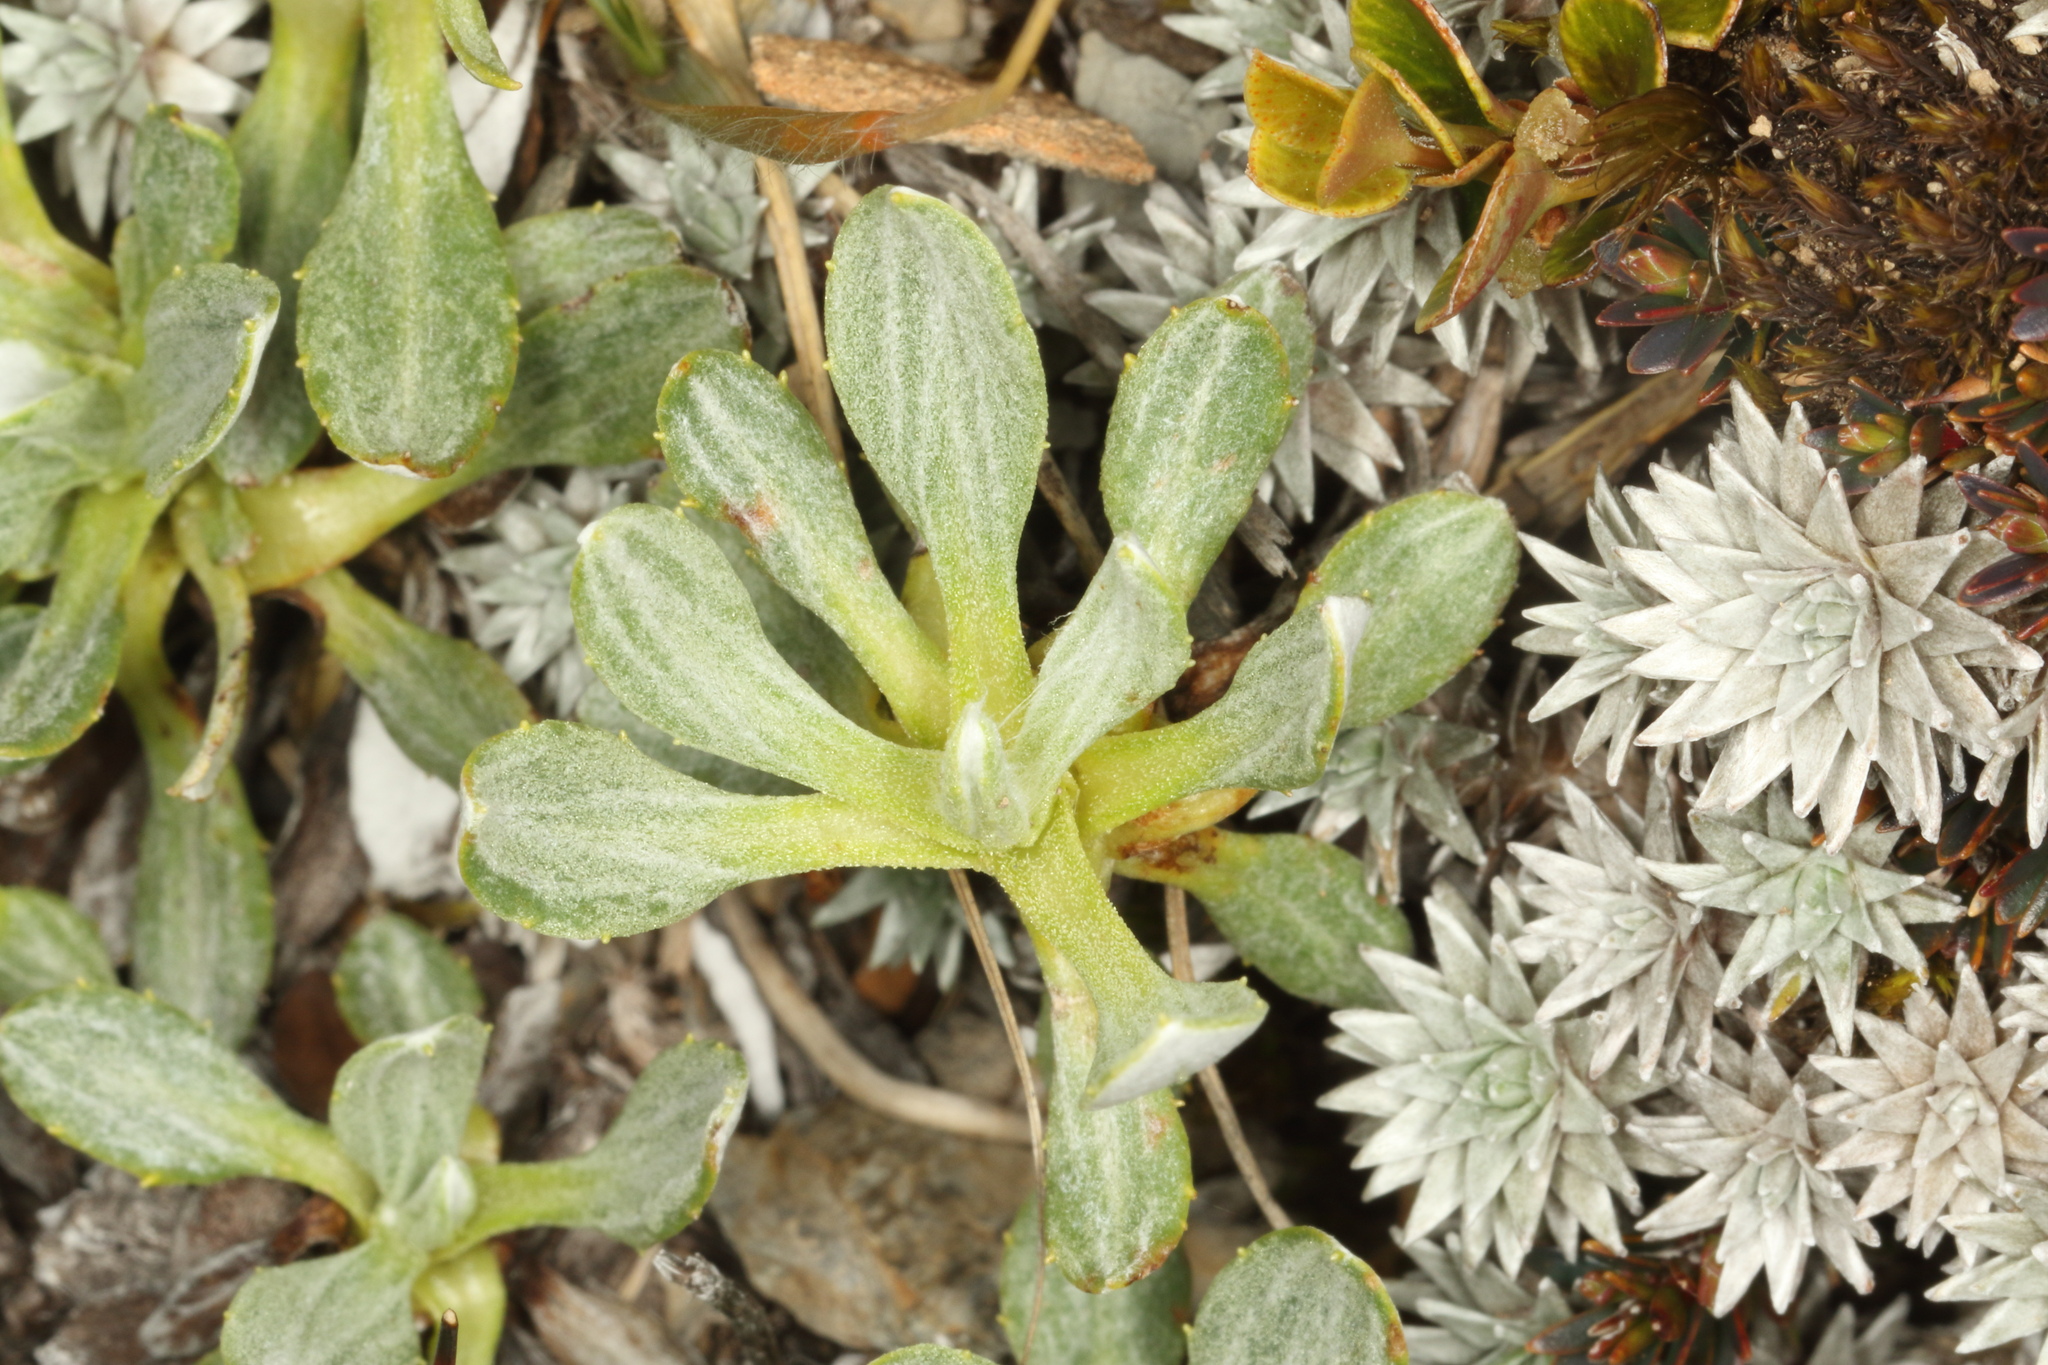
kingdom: Plantae
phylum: Tracheophyta
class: Magnoliopsida
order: Asterales
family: Asteraceae
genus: Celmisia
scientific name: Celmisia discolor
